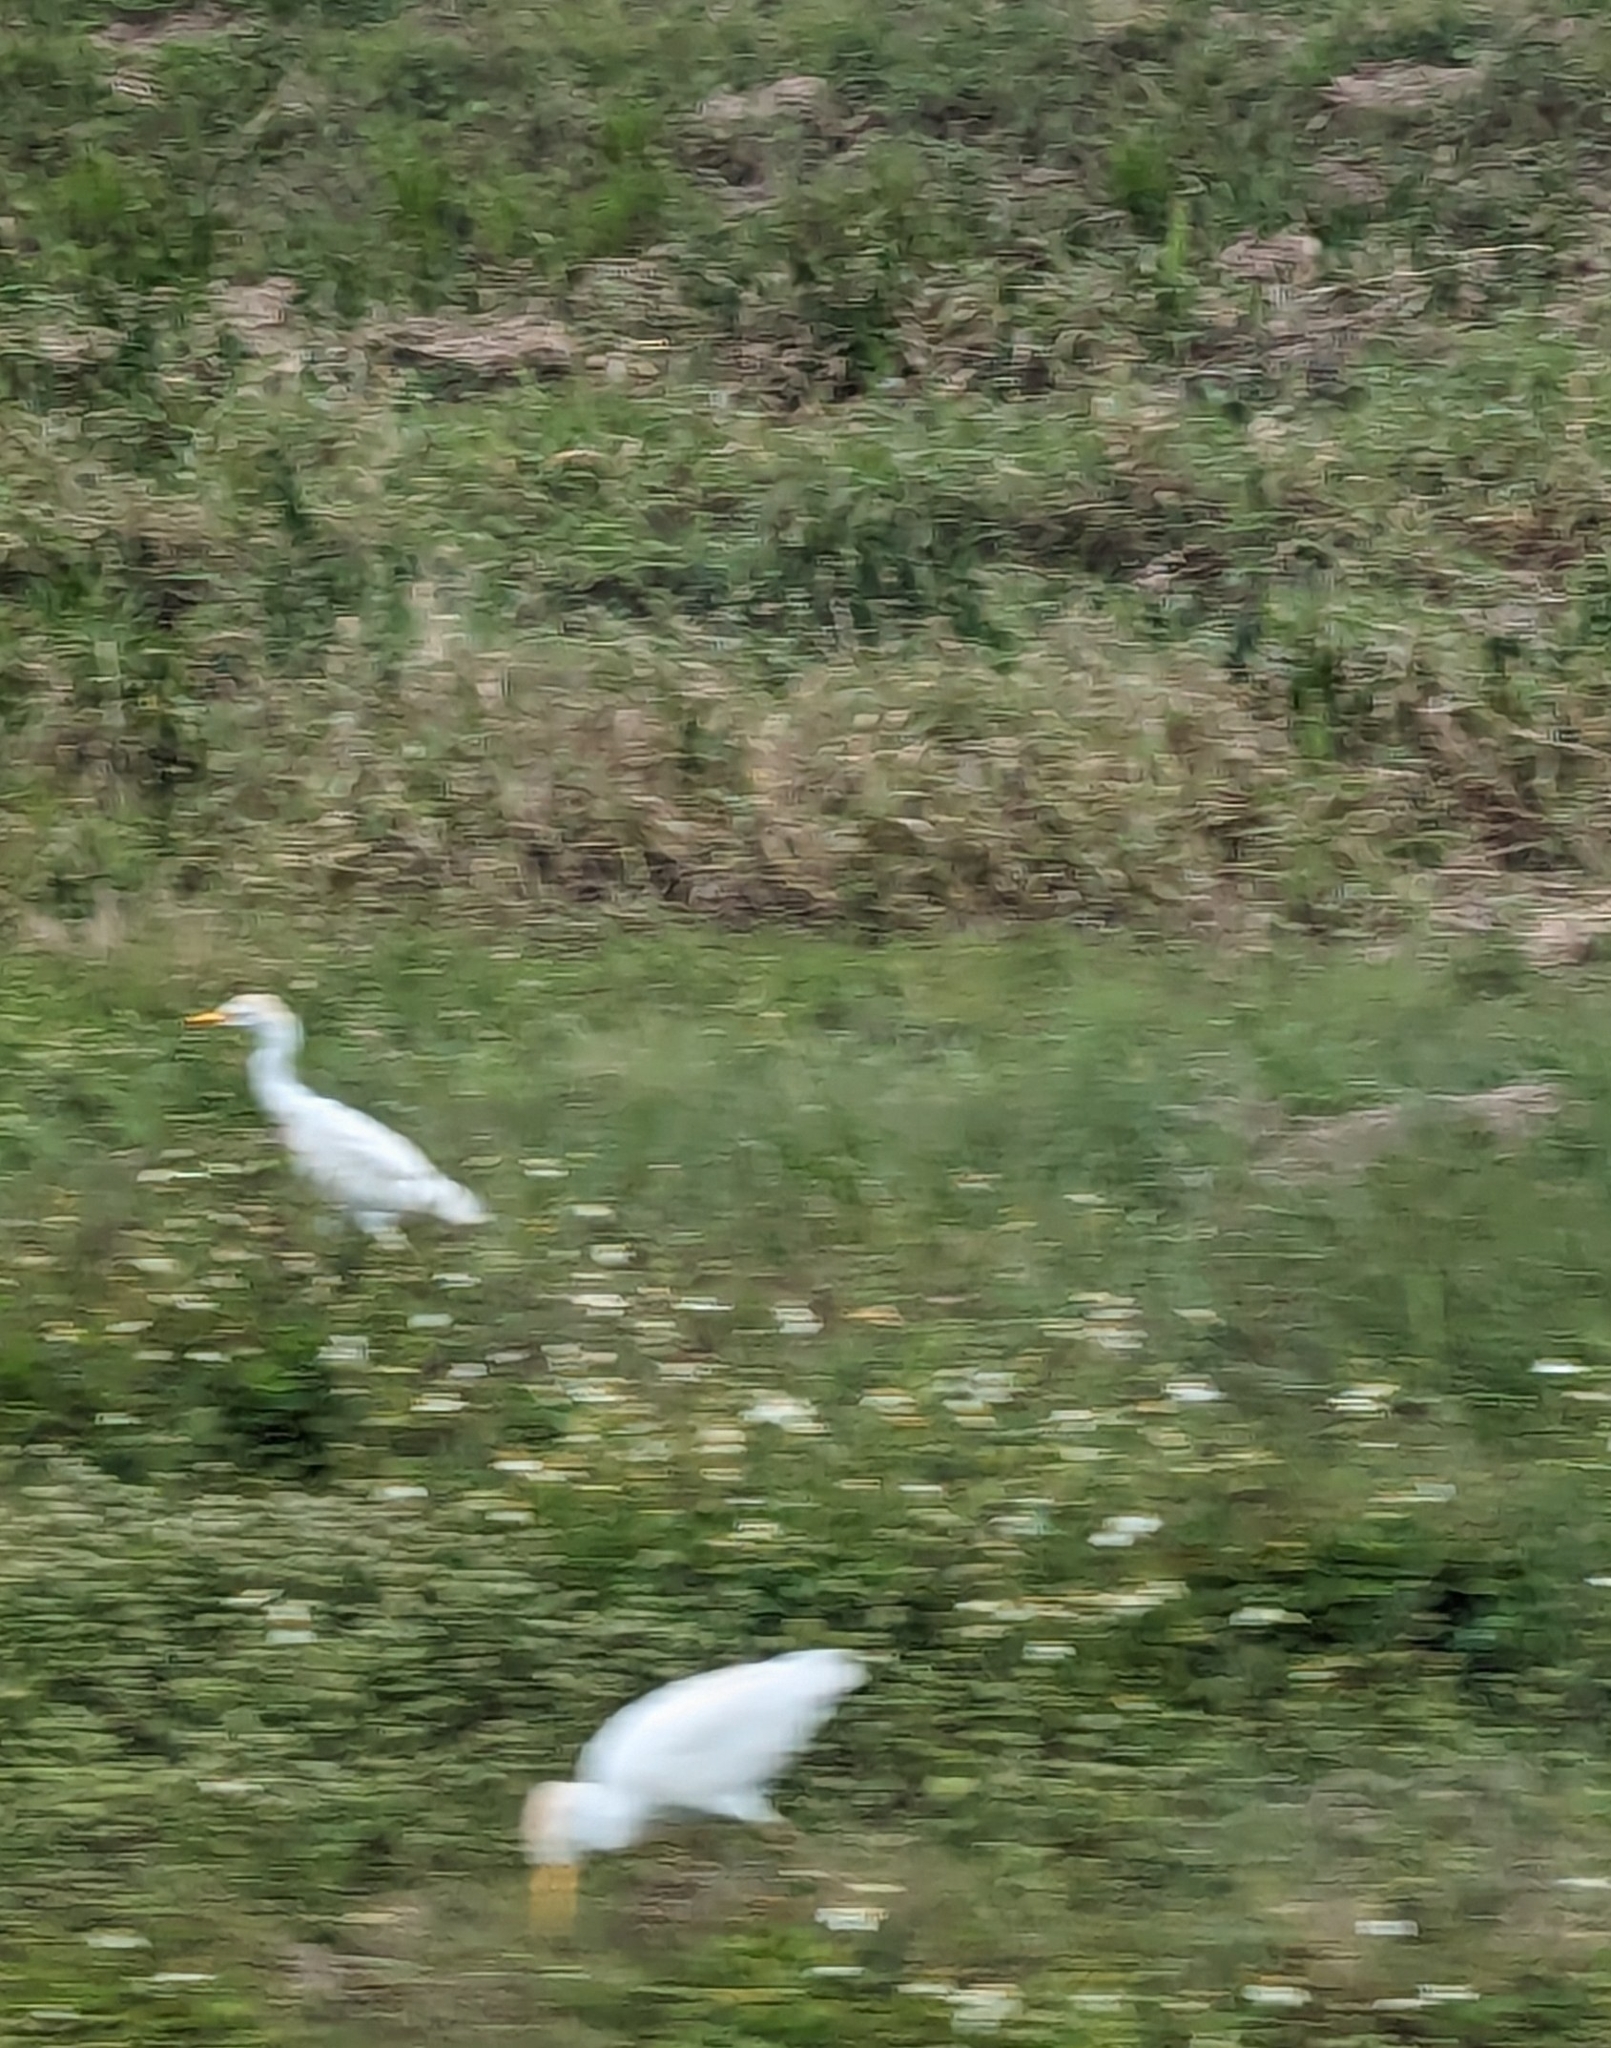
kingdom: Animalia
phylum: Chordata
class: Aves
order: Pelecaniformes
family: Ardeidae
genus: Bubulcus
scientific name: Bubulcus ibis
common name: Cattle egret
